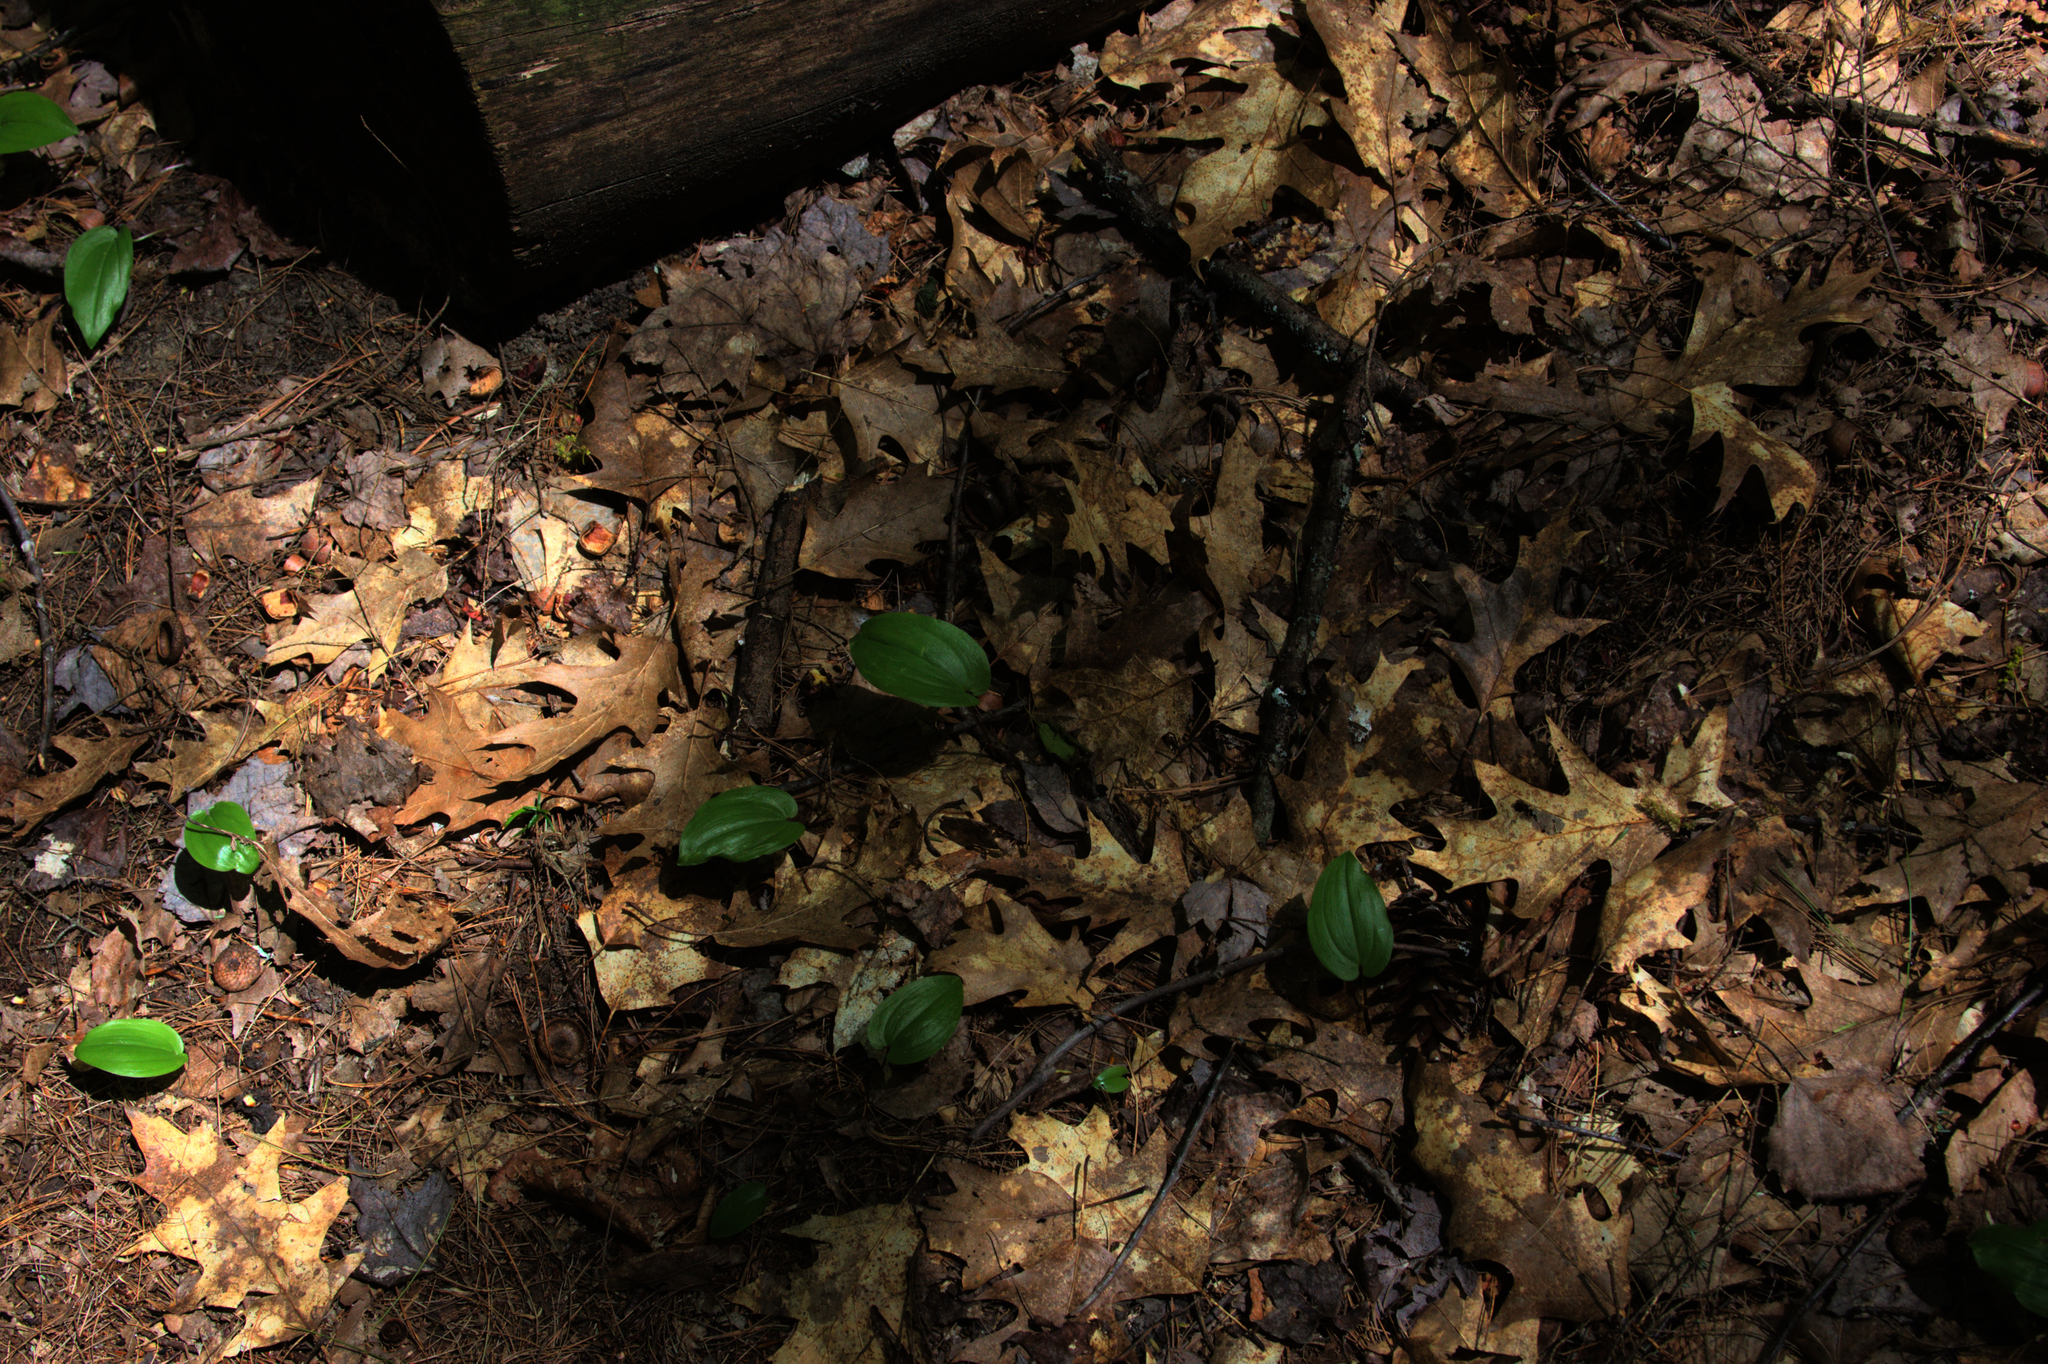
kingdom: Plantae
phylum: Tracheophyta
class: Liliopsida
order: Asparagales
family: Asparagaceae
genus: Maianthemum
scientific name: Maianthemum canadense
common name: False lily-of-the-valley
